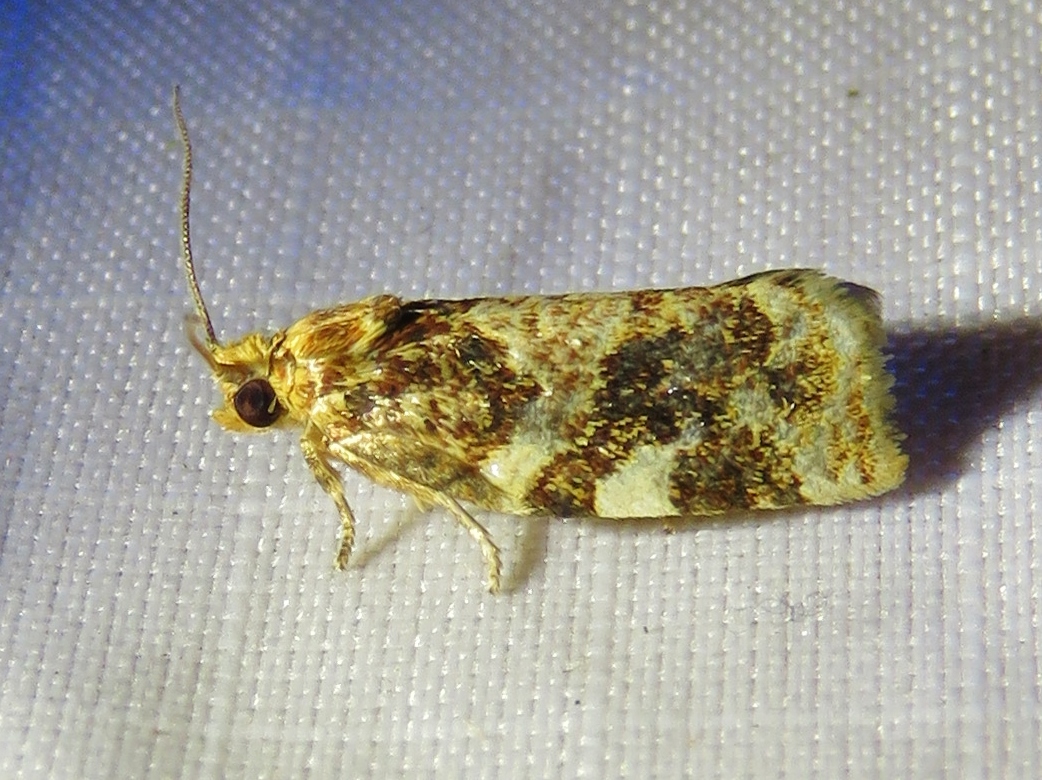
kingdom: Animalia
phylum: Arthropoda
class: Insecta
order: Lepidoptera
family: Tortricidae
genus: Archips
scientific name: Archips argyrospila
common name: Fruit-tree leafroller moth
